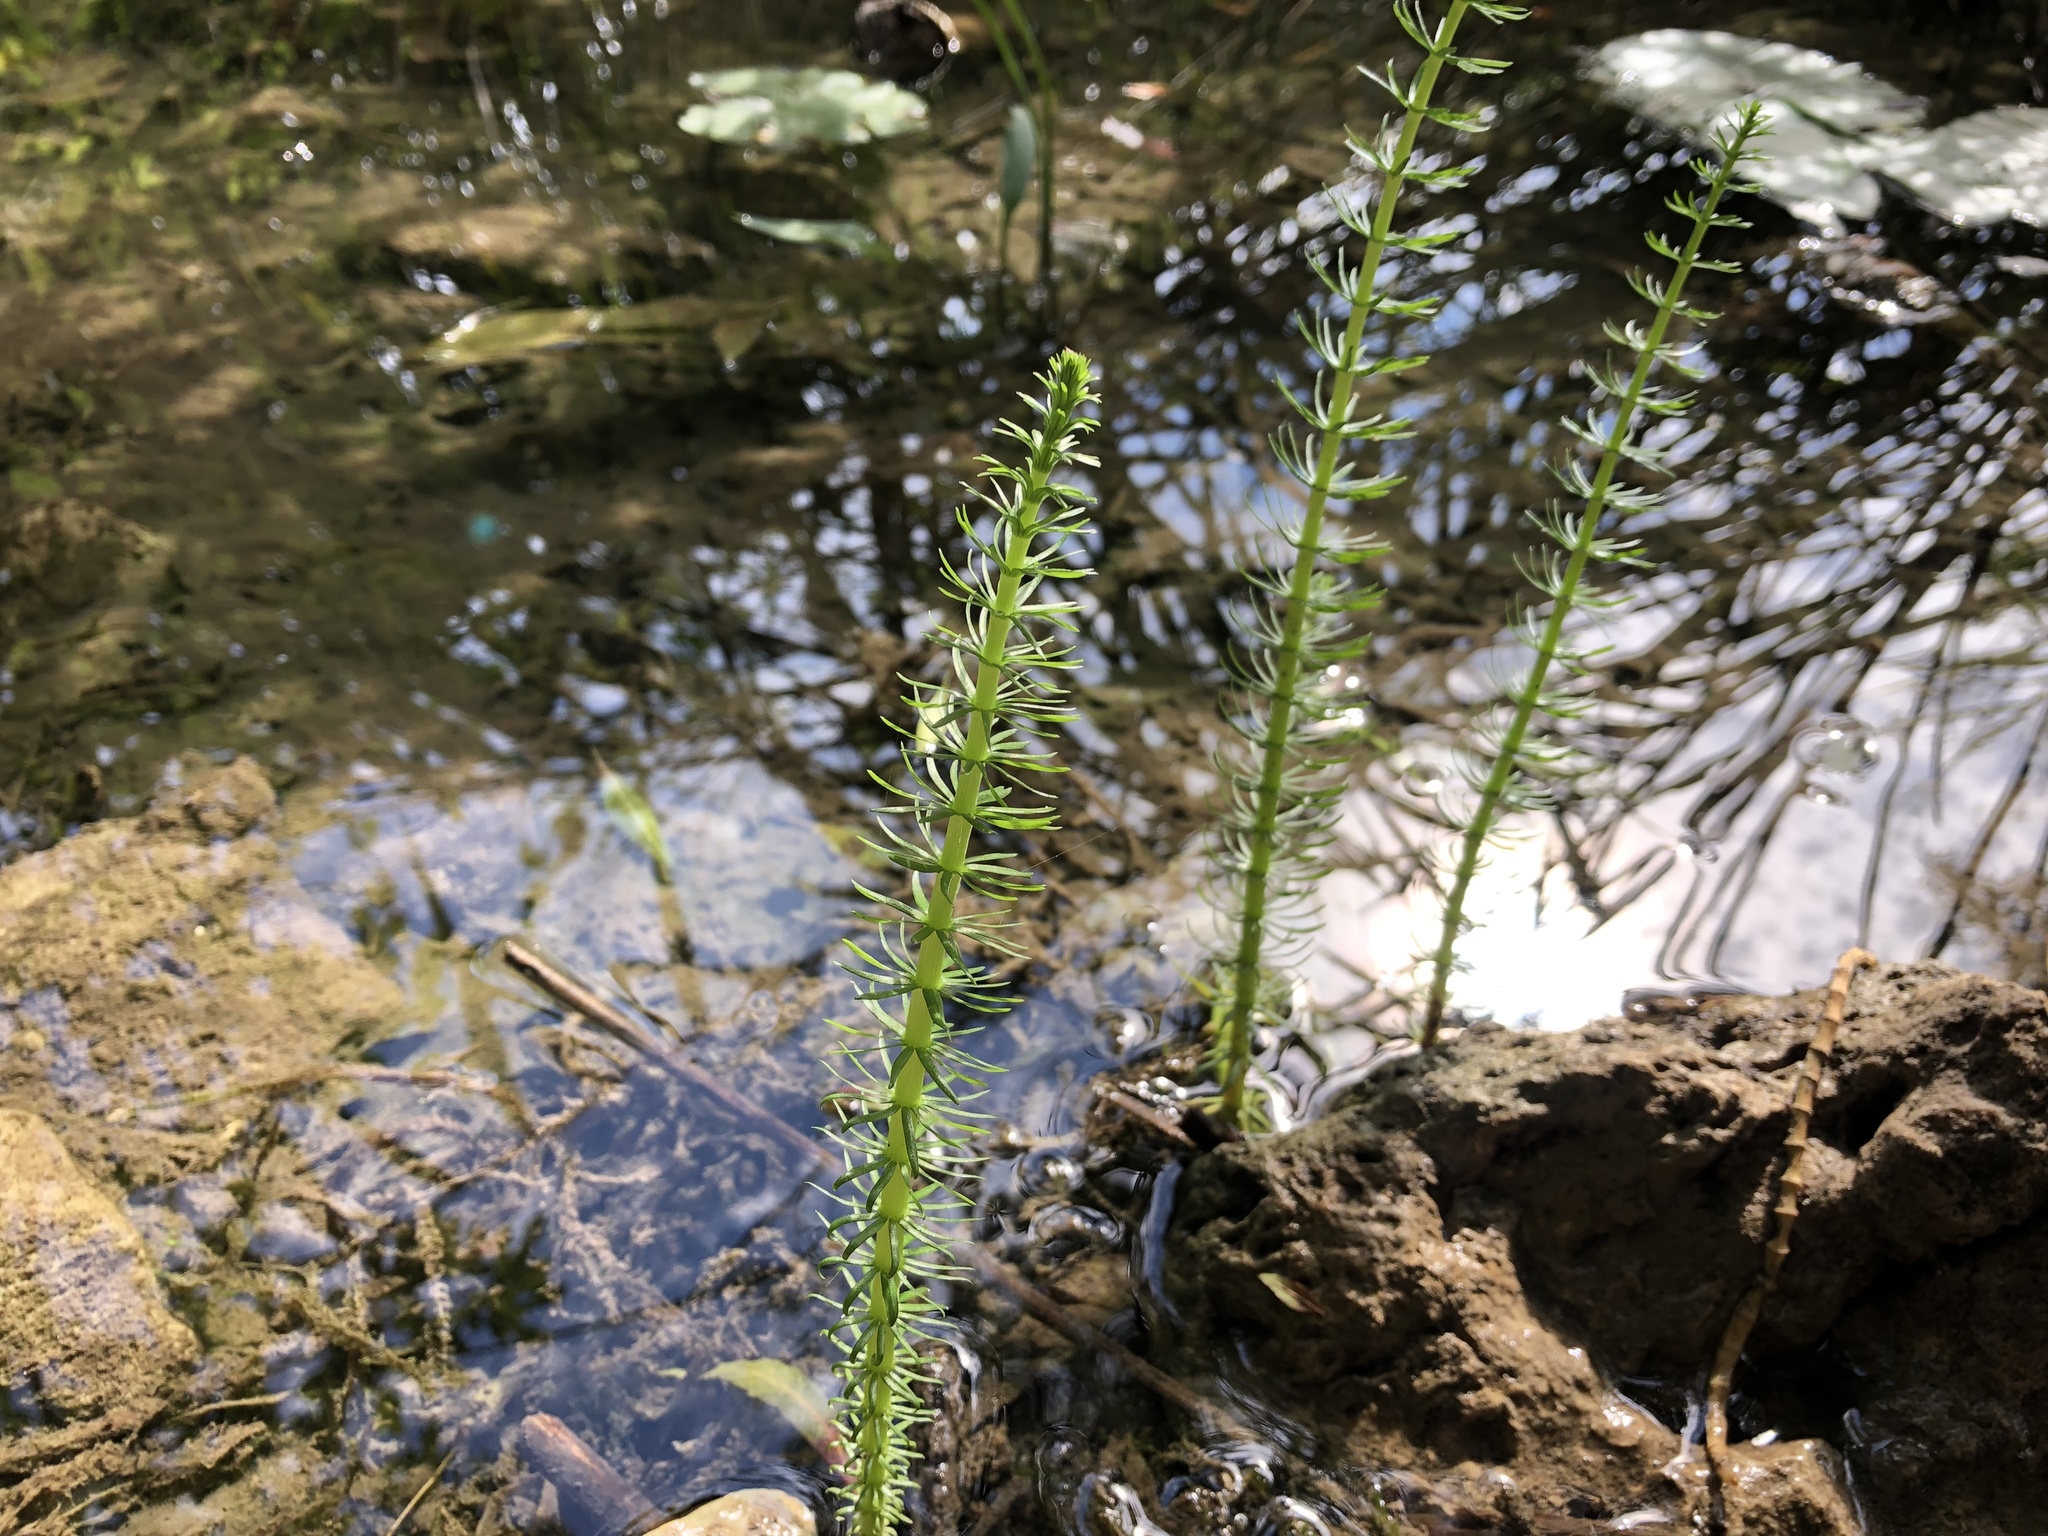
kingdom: Plantae
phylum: Tracheophyta
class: Magnoliopsida
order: Lamiales
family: Plantaginaceae
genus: Hippuris
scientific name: Hippuris vulgaris
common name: Mare's-tail
